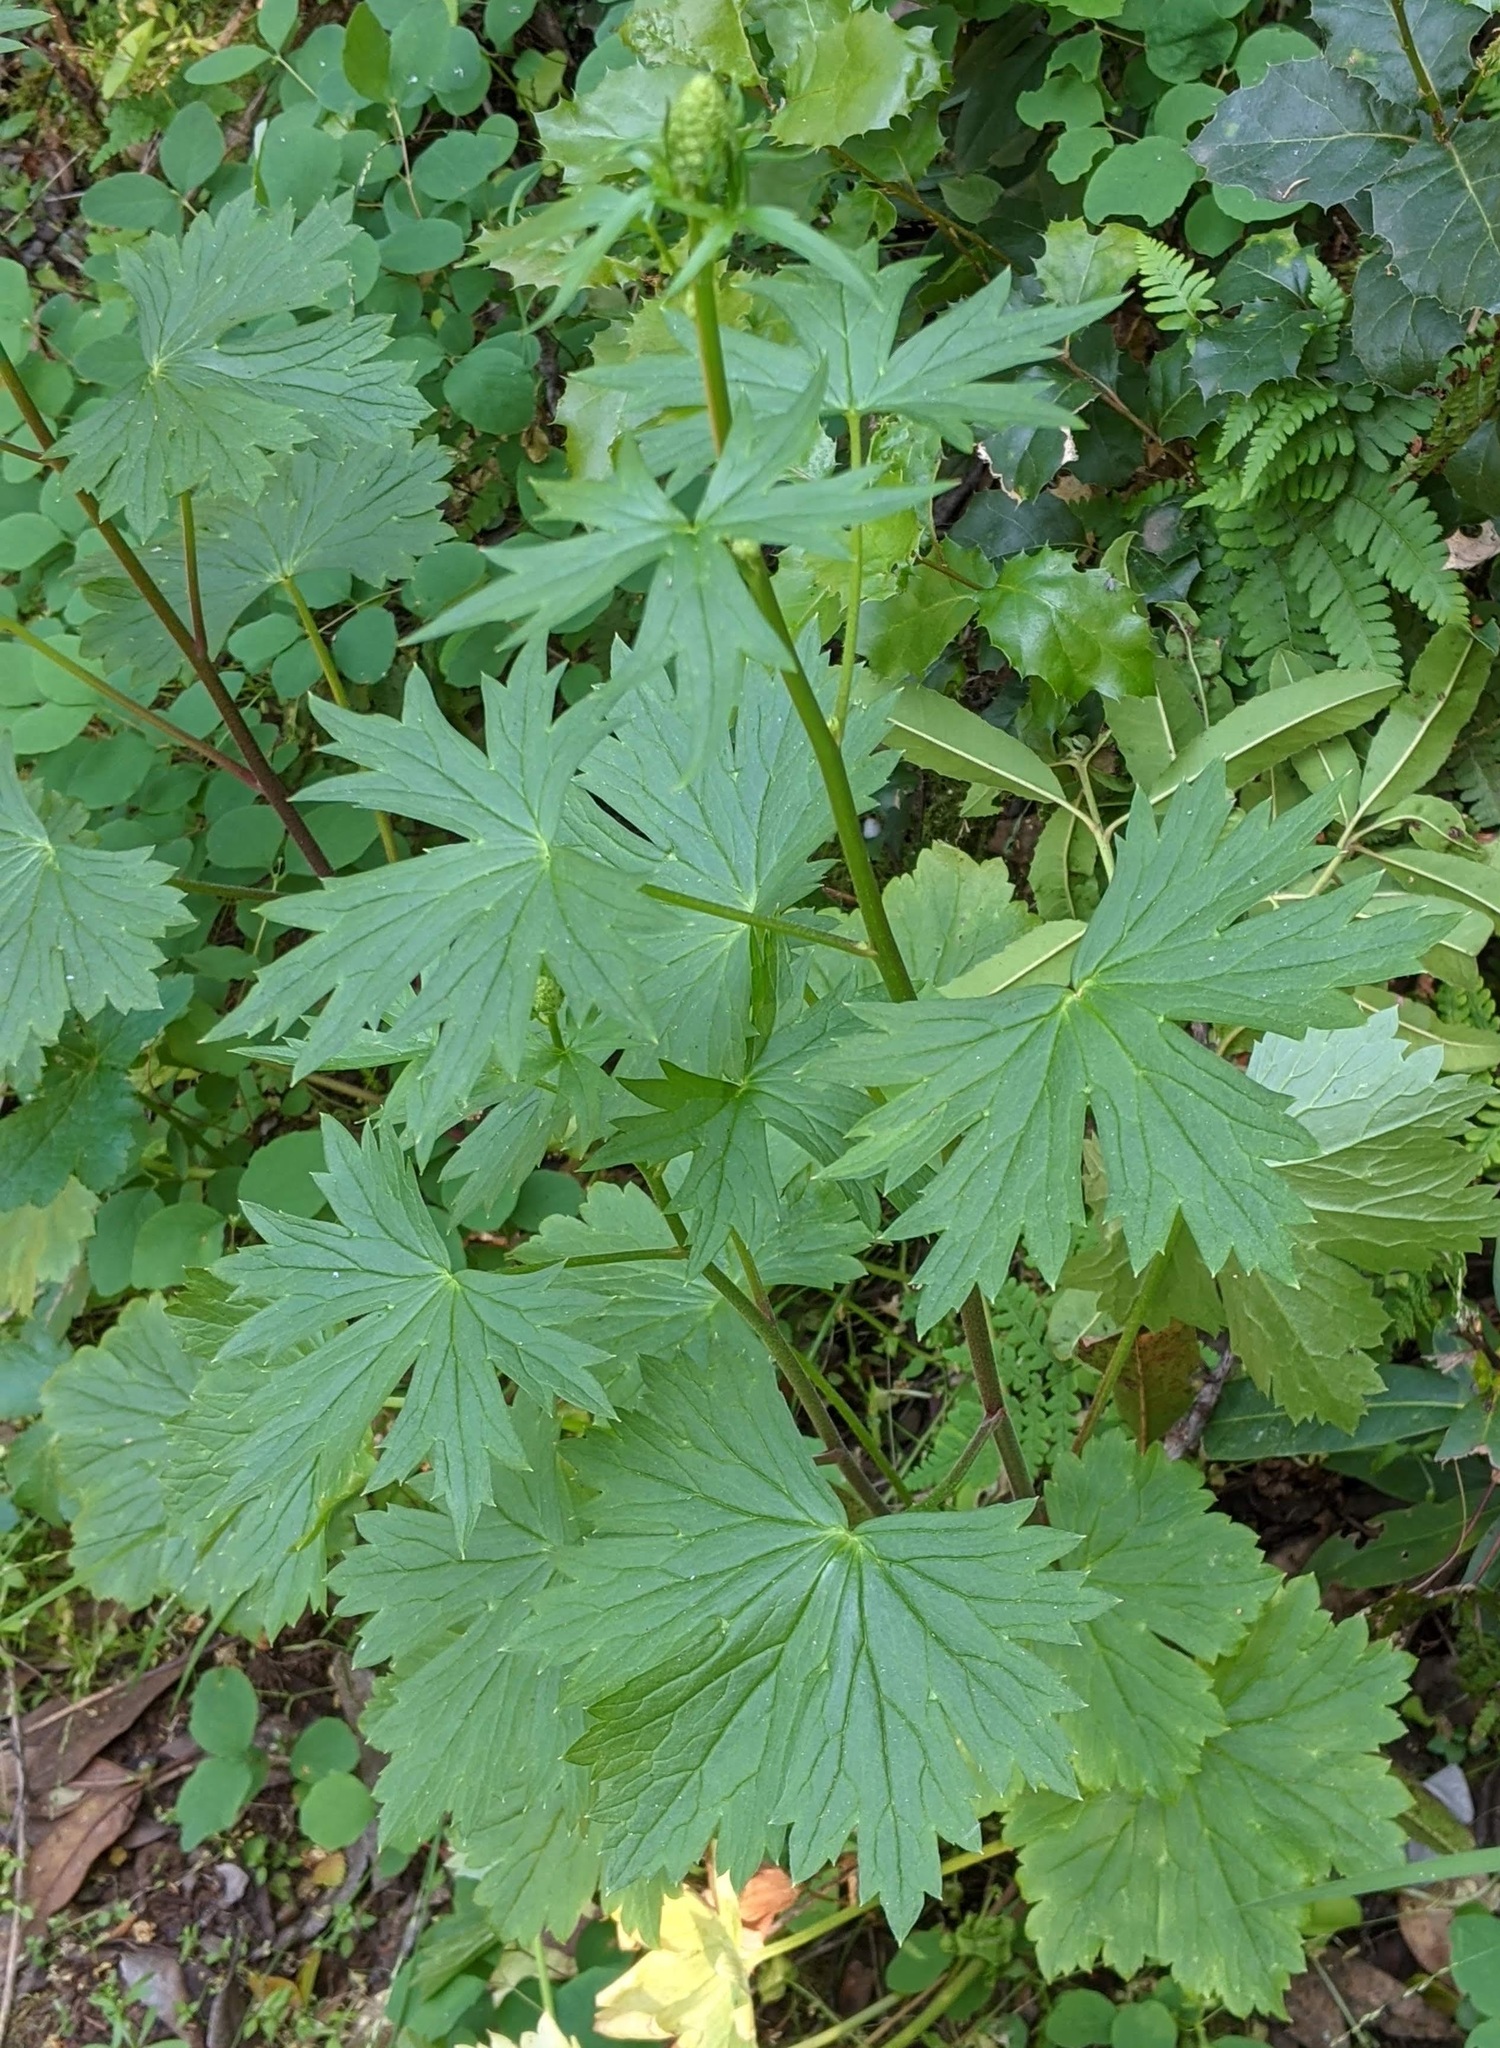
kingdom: Plantae
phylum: Tracheophyta
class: Magnoliopsida
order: Ranunculales
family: Ranunculaceae
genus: Delphinium
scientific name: Delphinium californicum
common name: California larkspur
